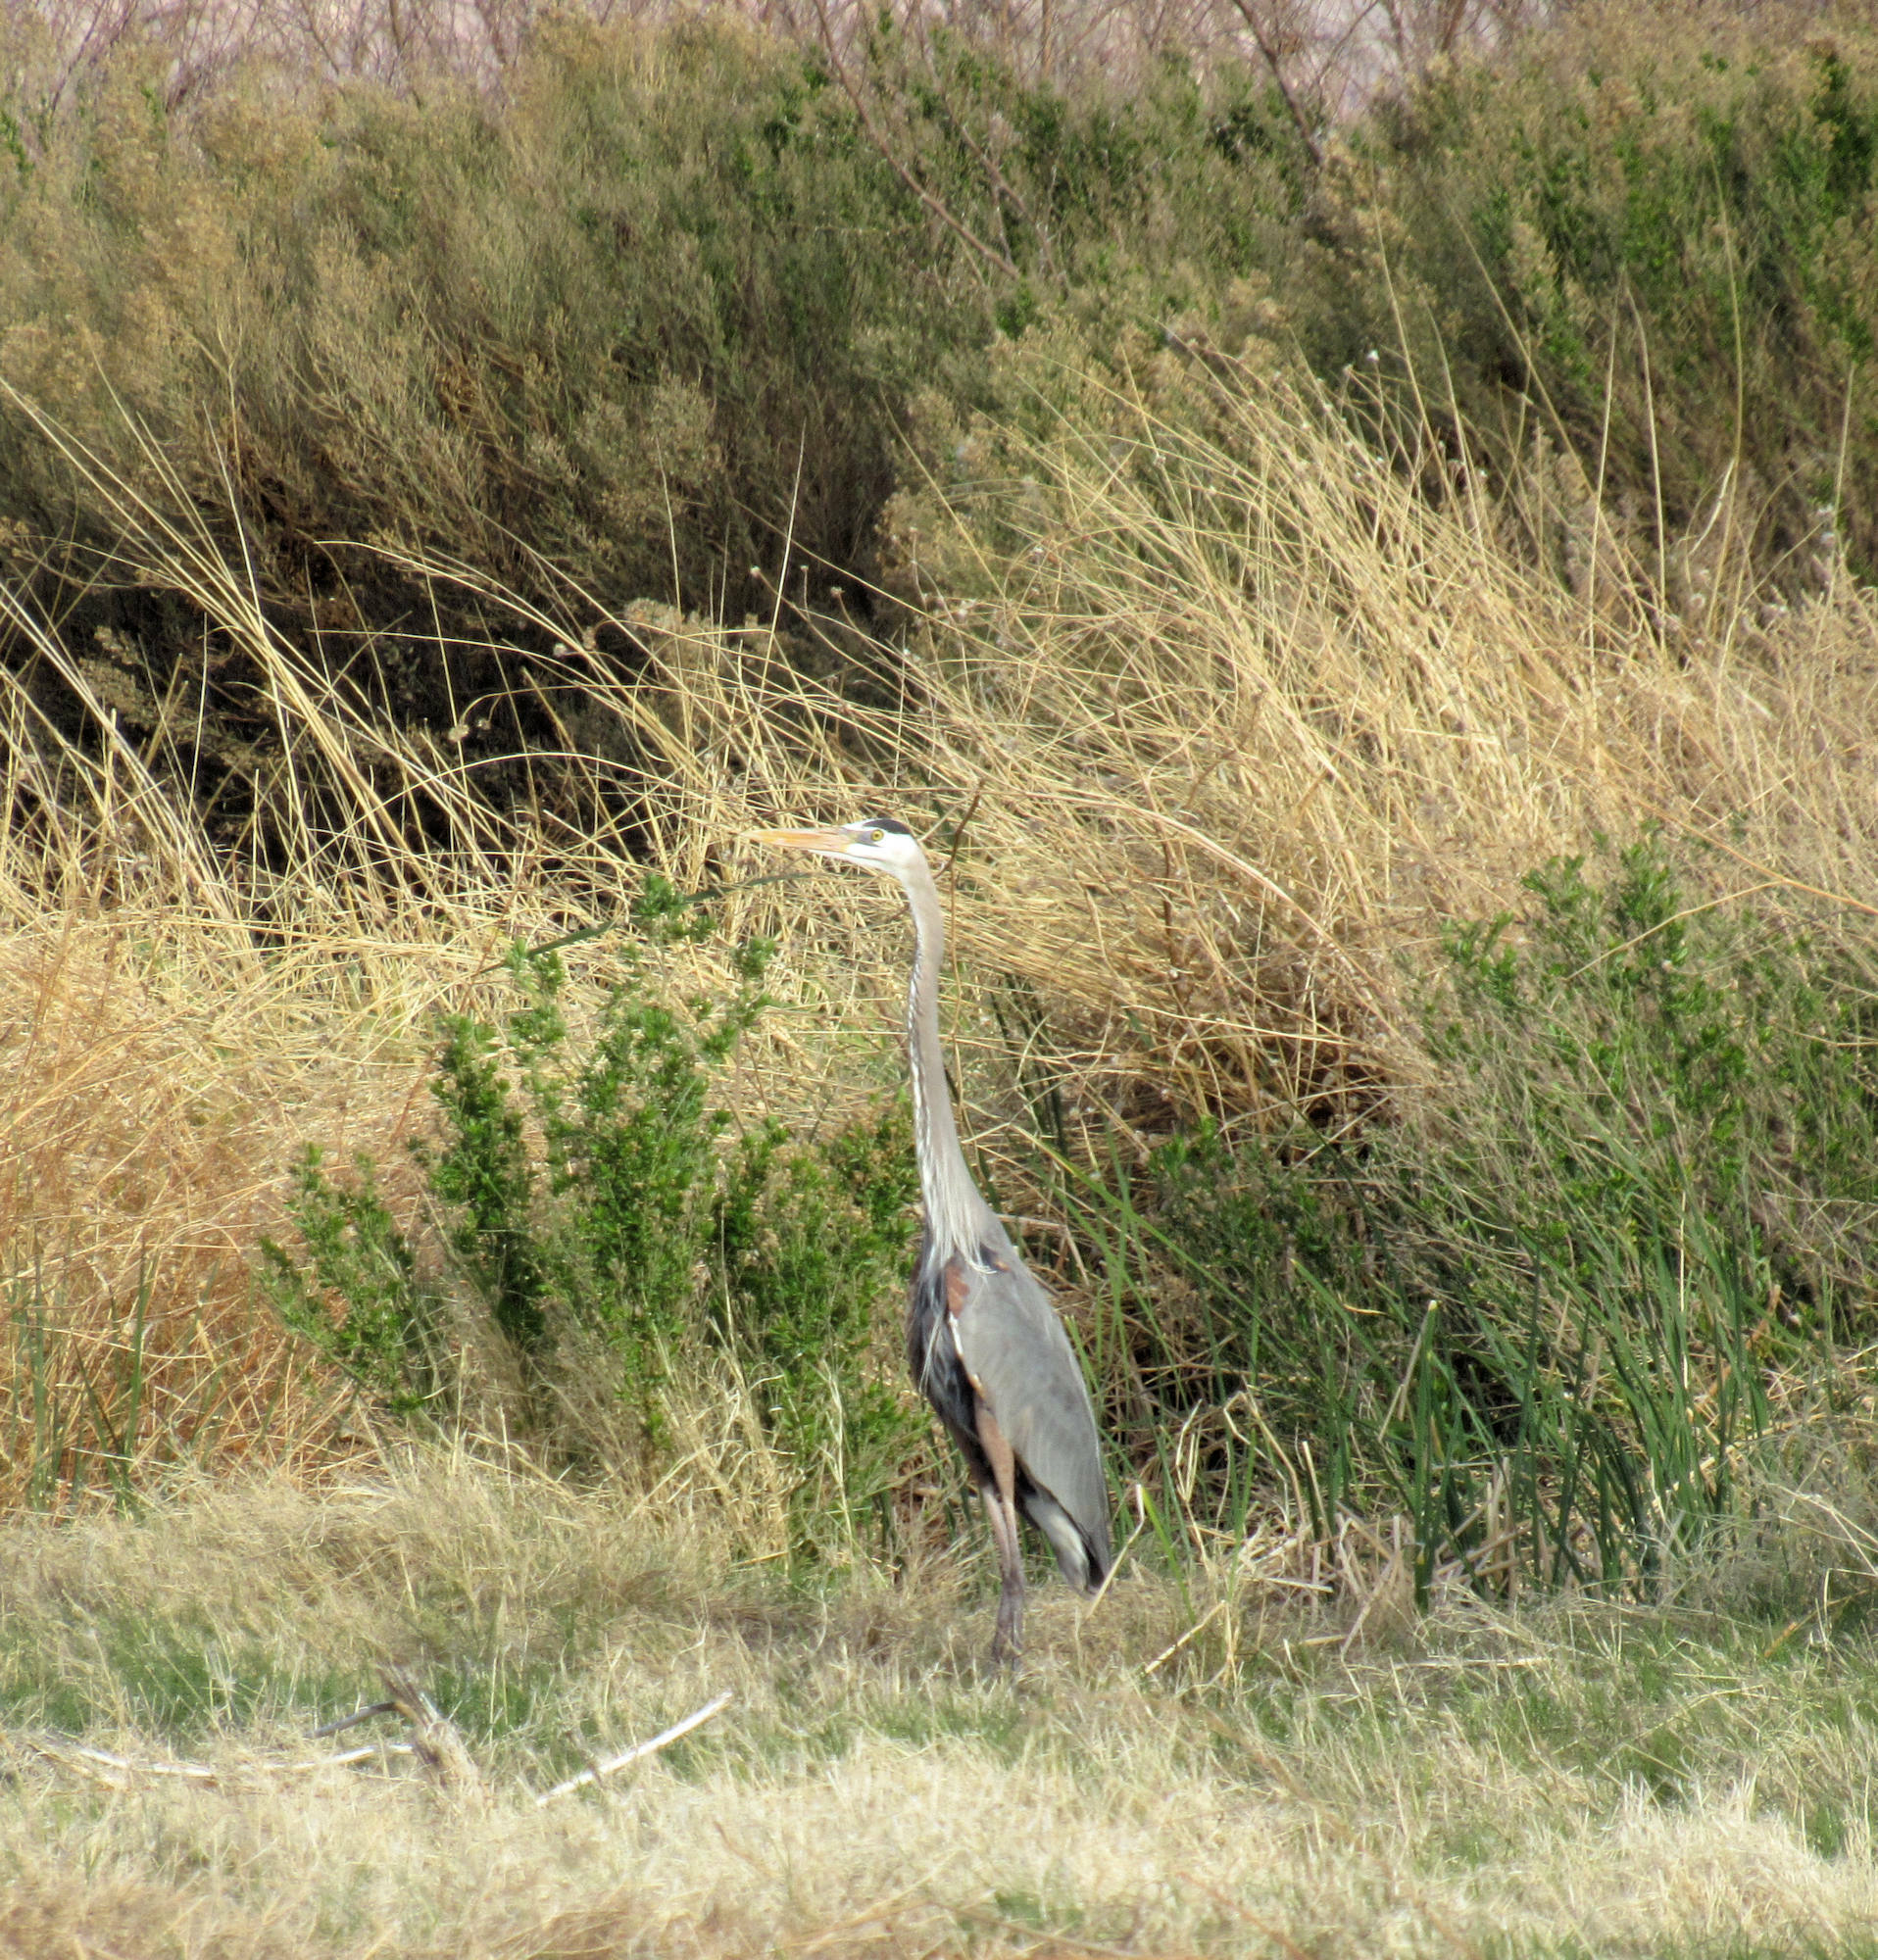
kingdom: Animalia
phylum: Chordata
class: Aves
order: Pelecaniformes
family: Ardeidae
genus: Ardea
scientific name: Ardea herodias
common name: Great blue heron
